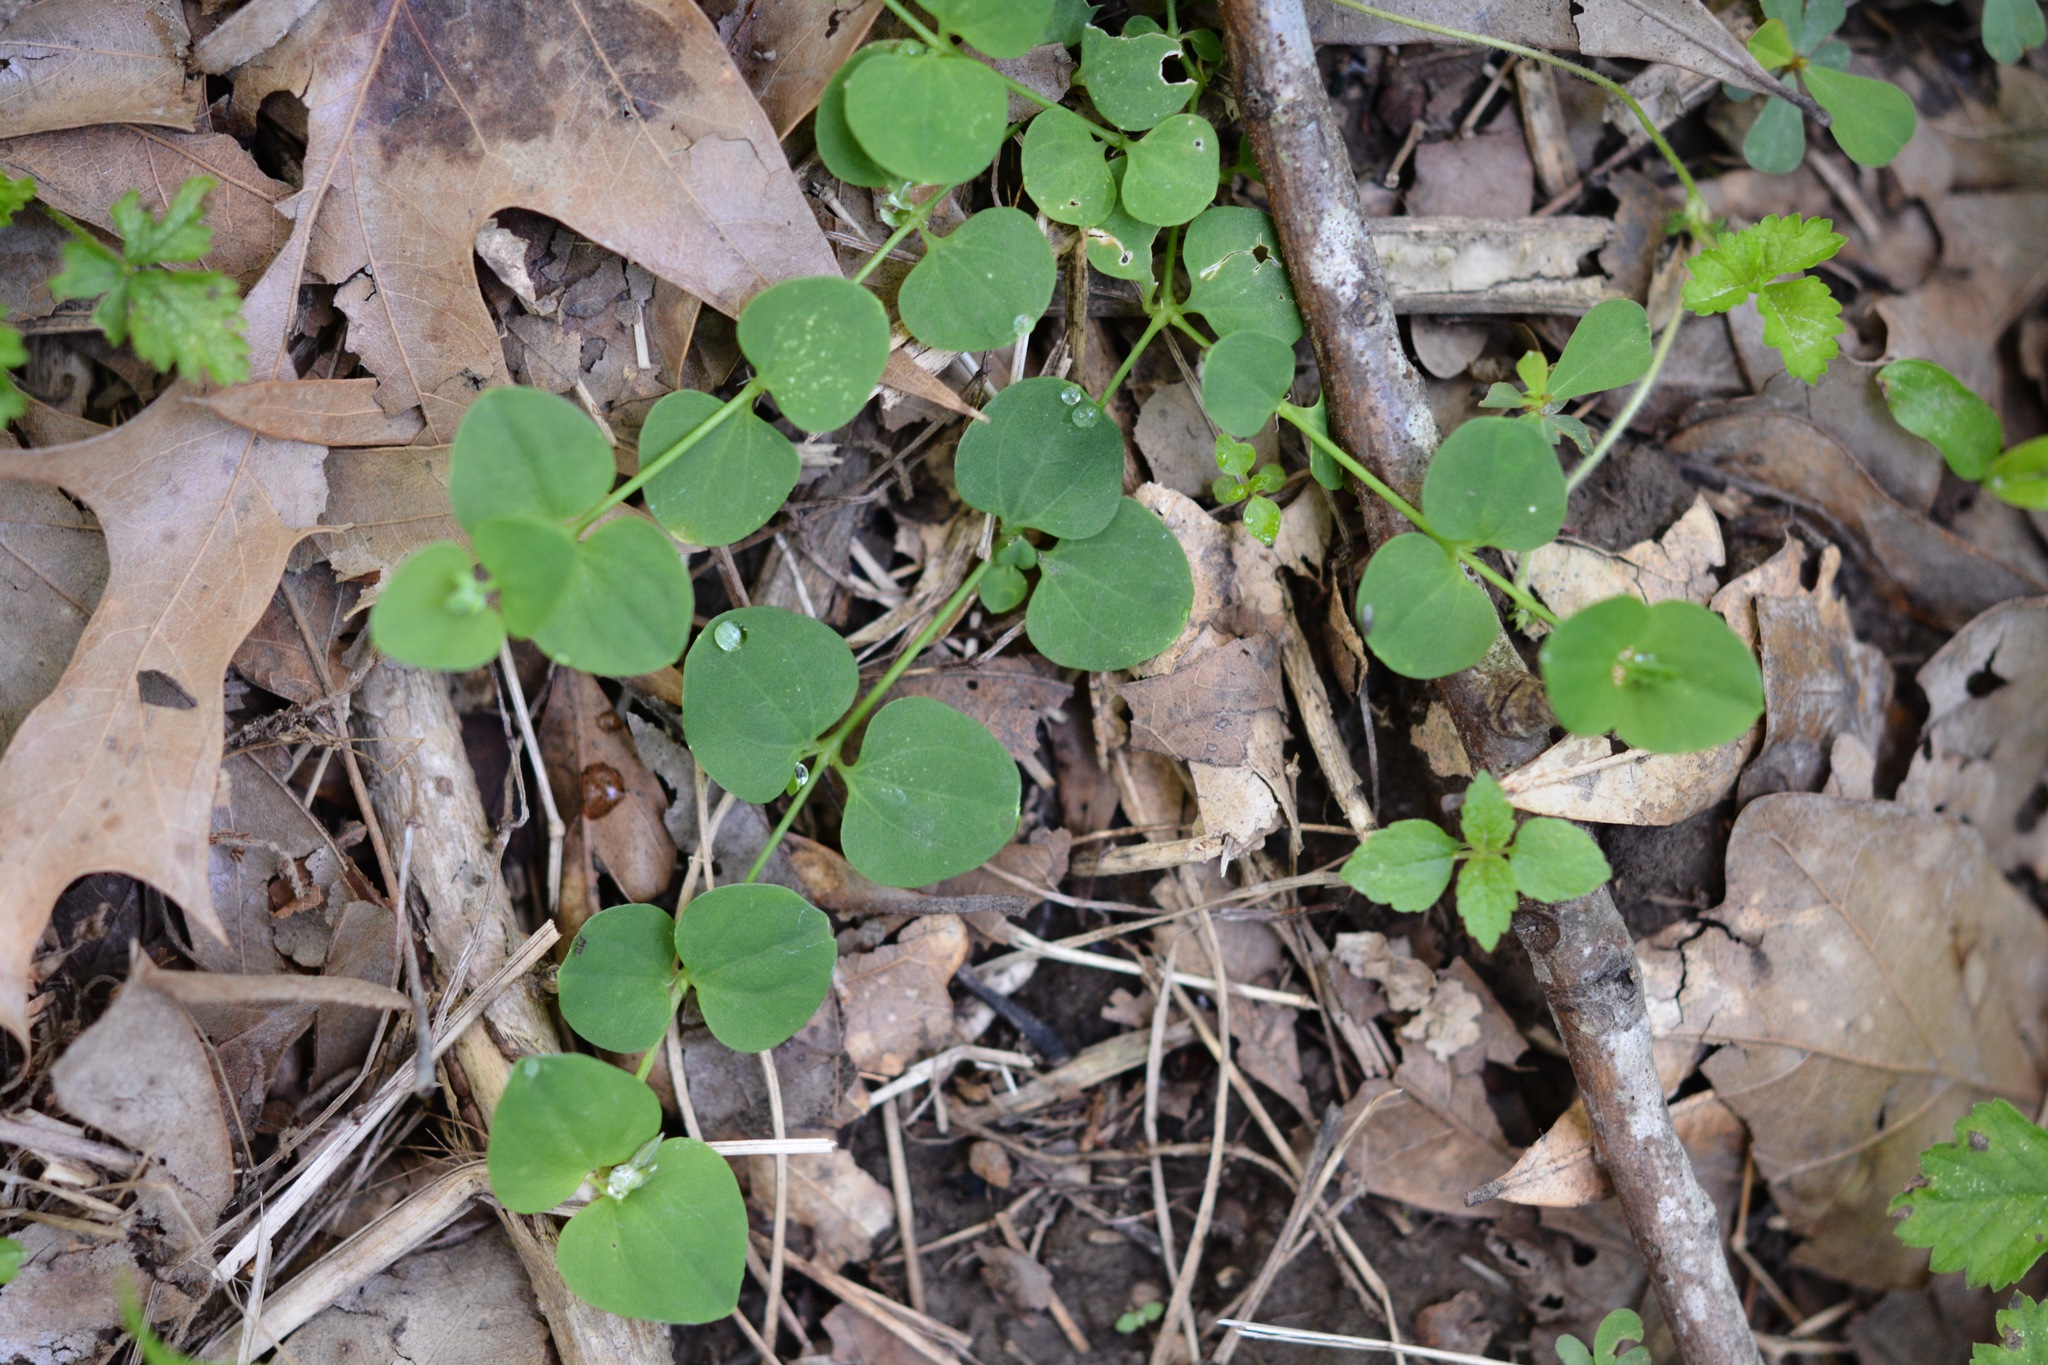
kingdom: Plantae
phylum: Tracheophyta
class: Magnoliopsida
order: Caryophyllales
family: Caryophyllaceae
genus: Drymaria
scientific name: Drymaria cordata
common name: Whitesnow
